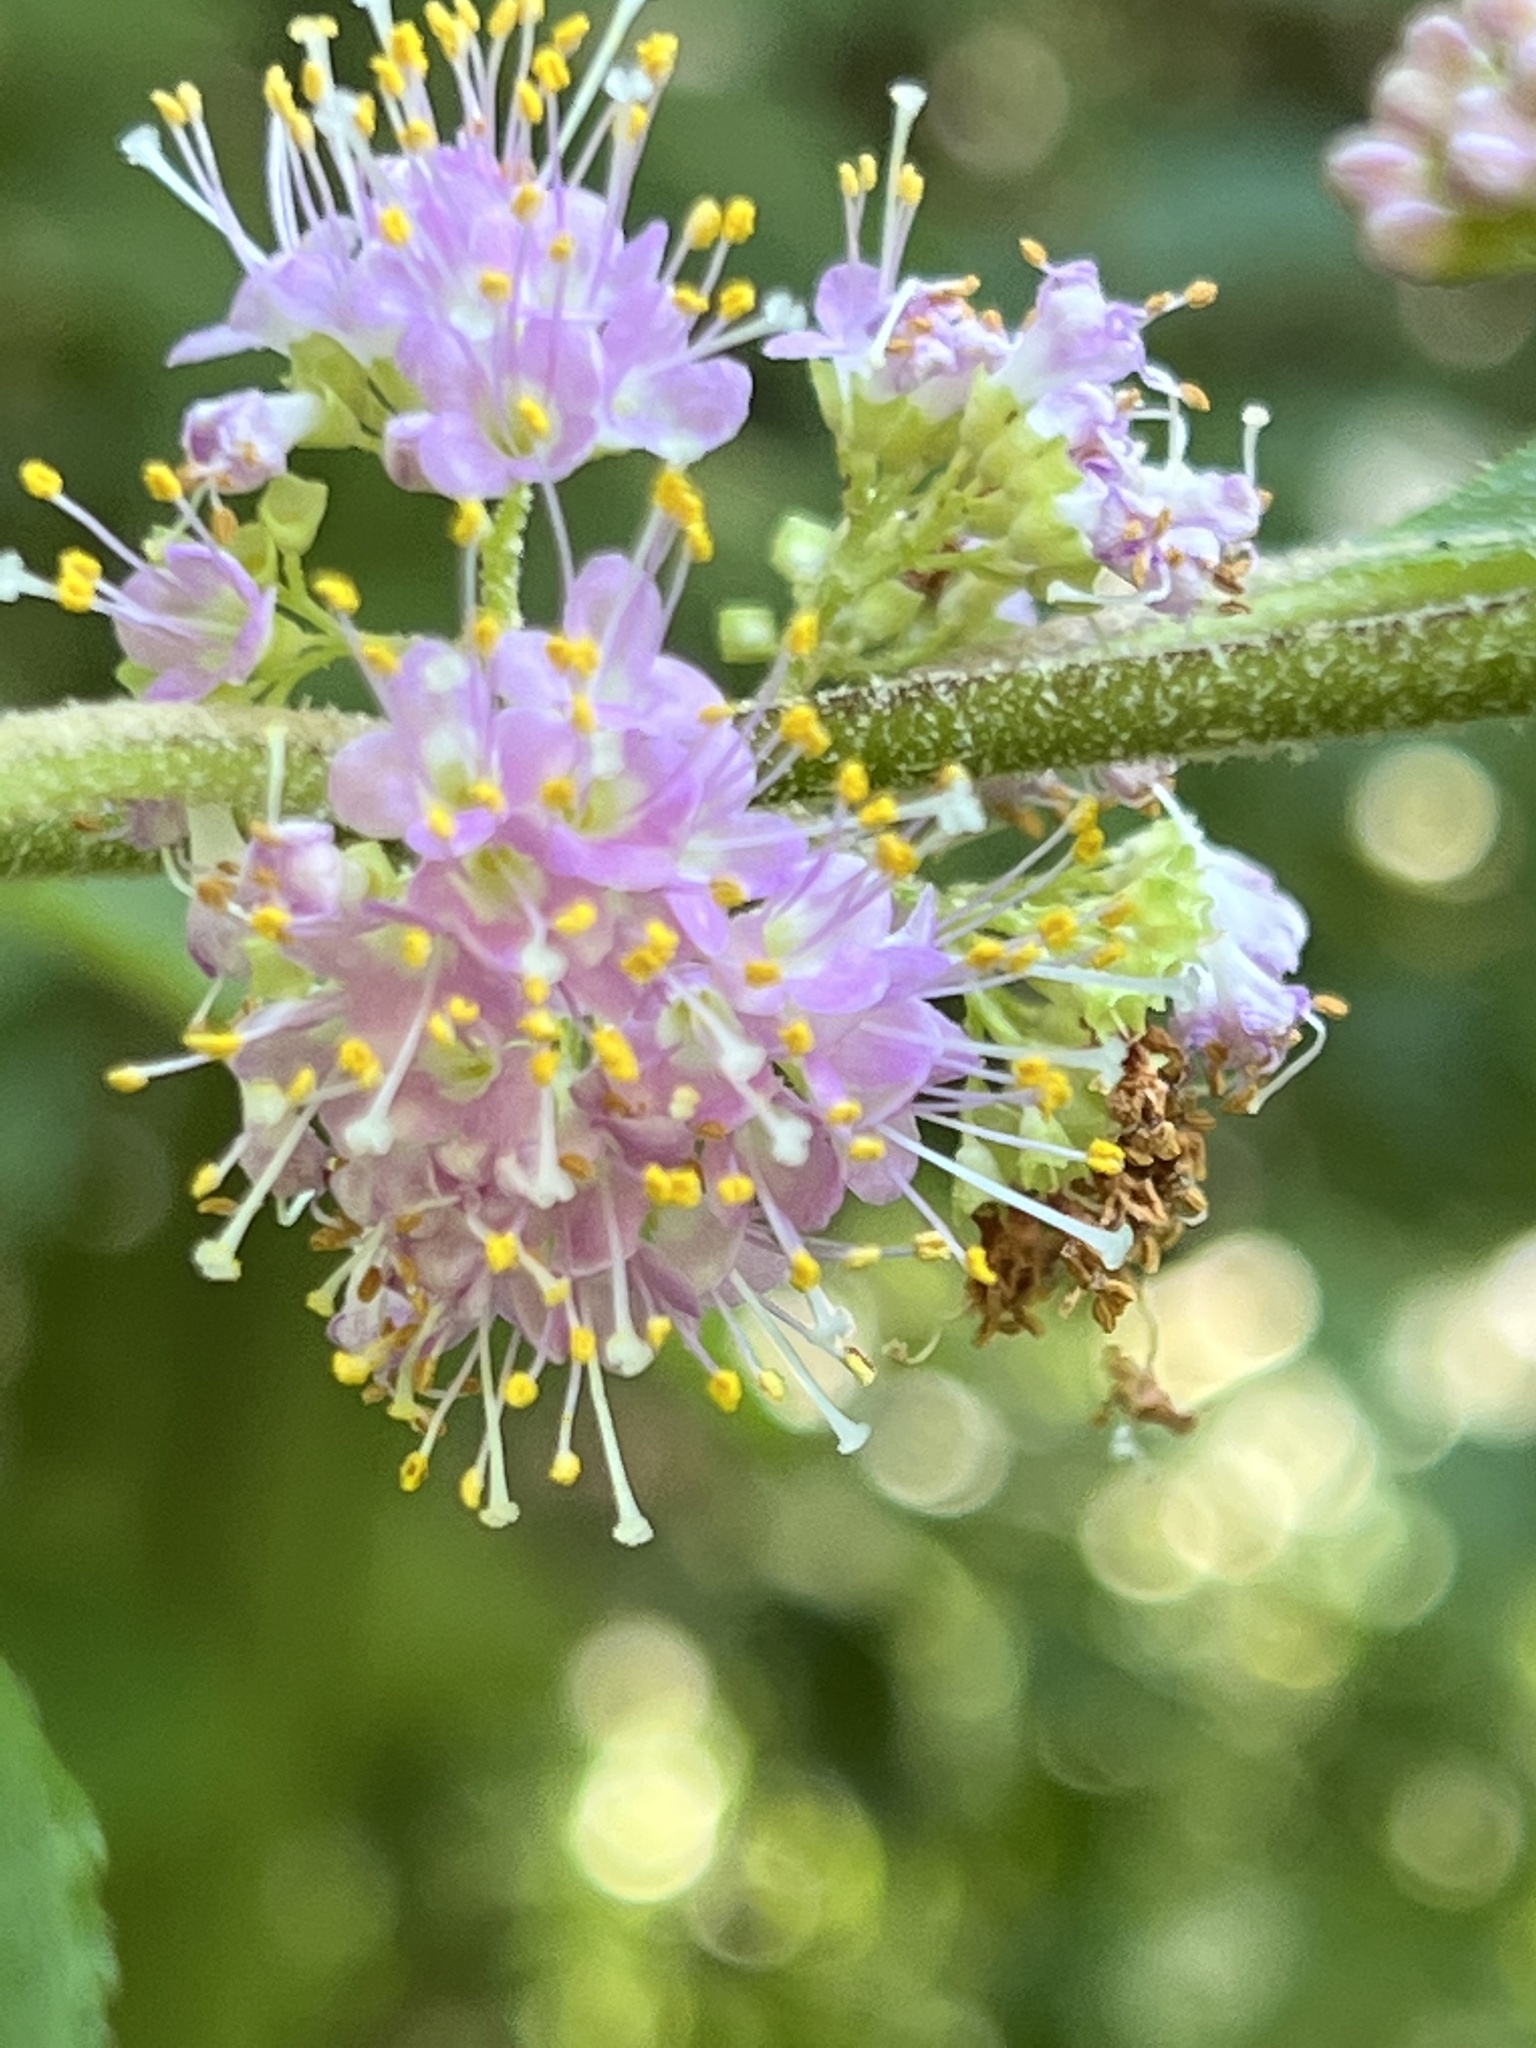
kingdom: Plantae
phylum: Tracheophyta
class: Magnoliopsida
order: Lamiales
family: Lamiaceae
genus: Callicarpa
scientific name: Callicarpa americana
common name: American beautyberry
